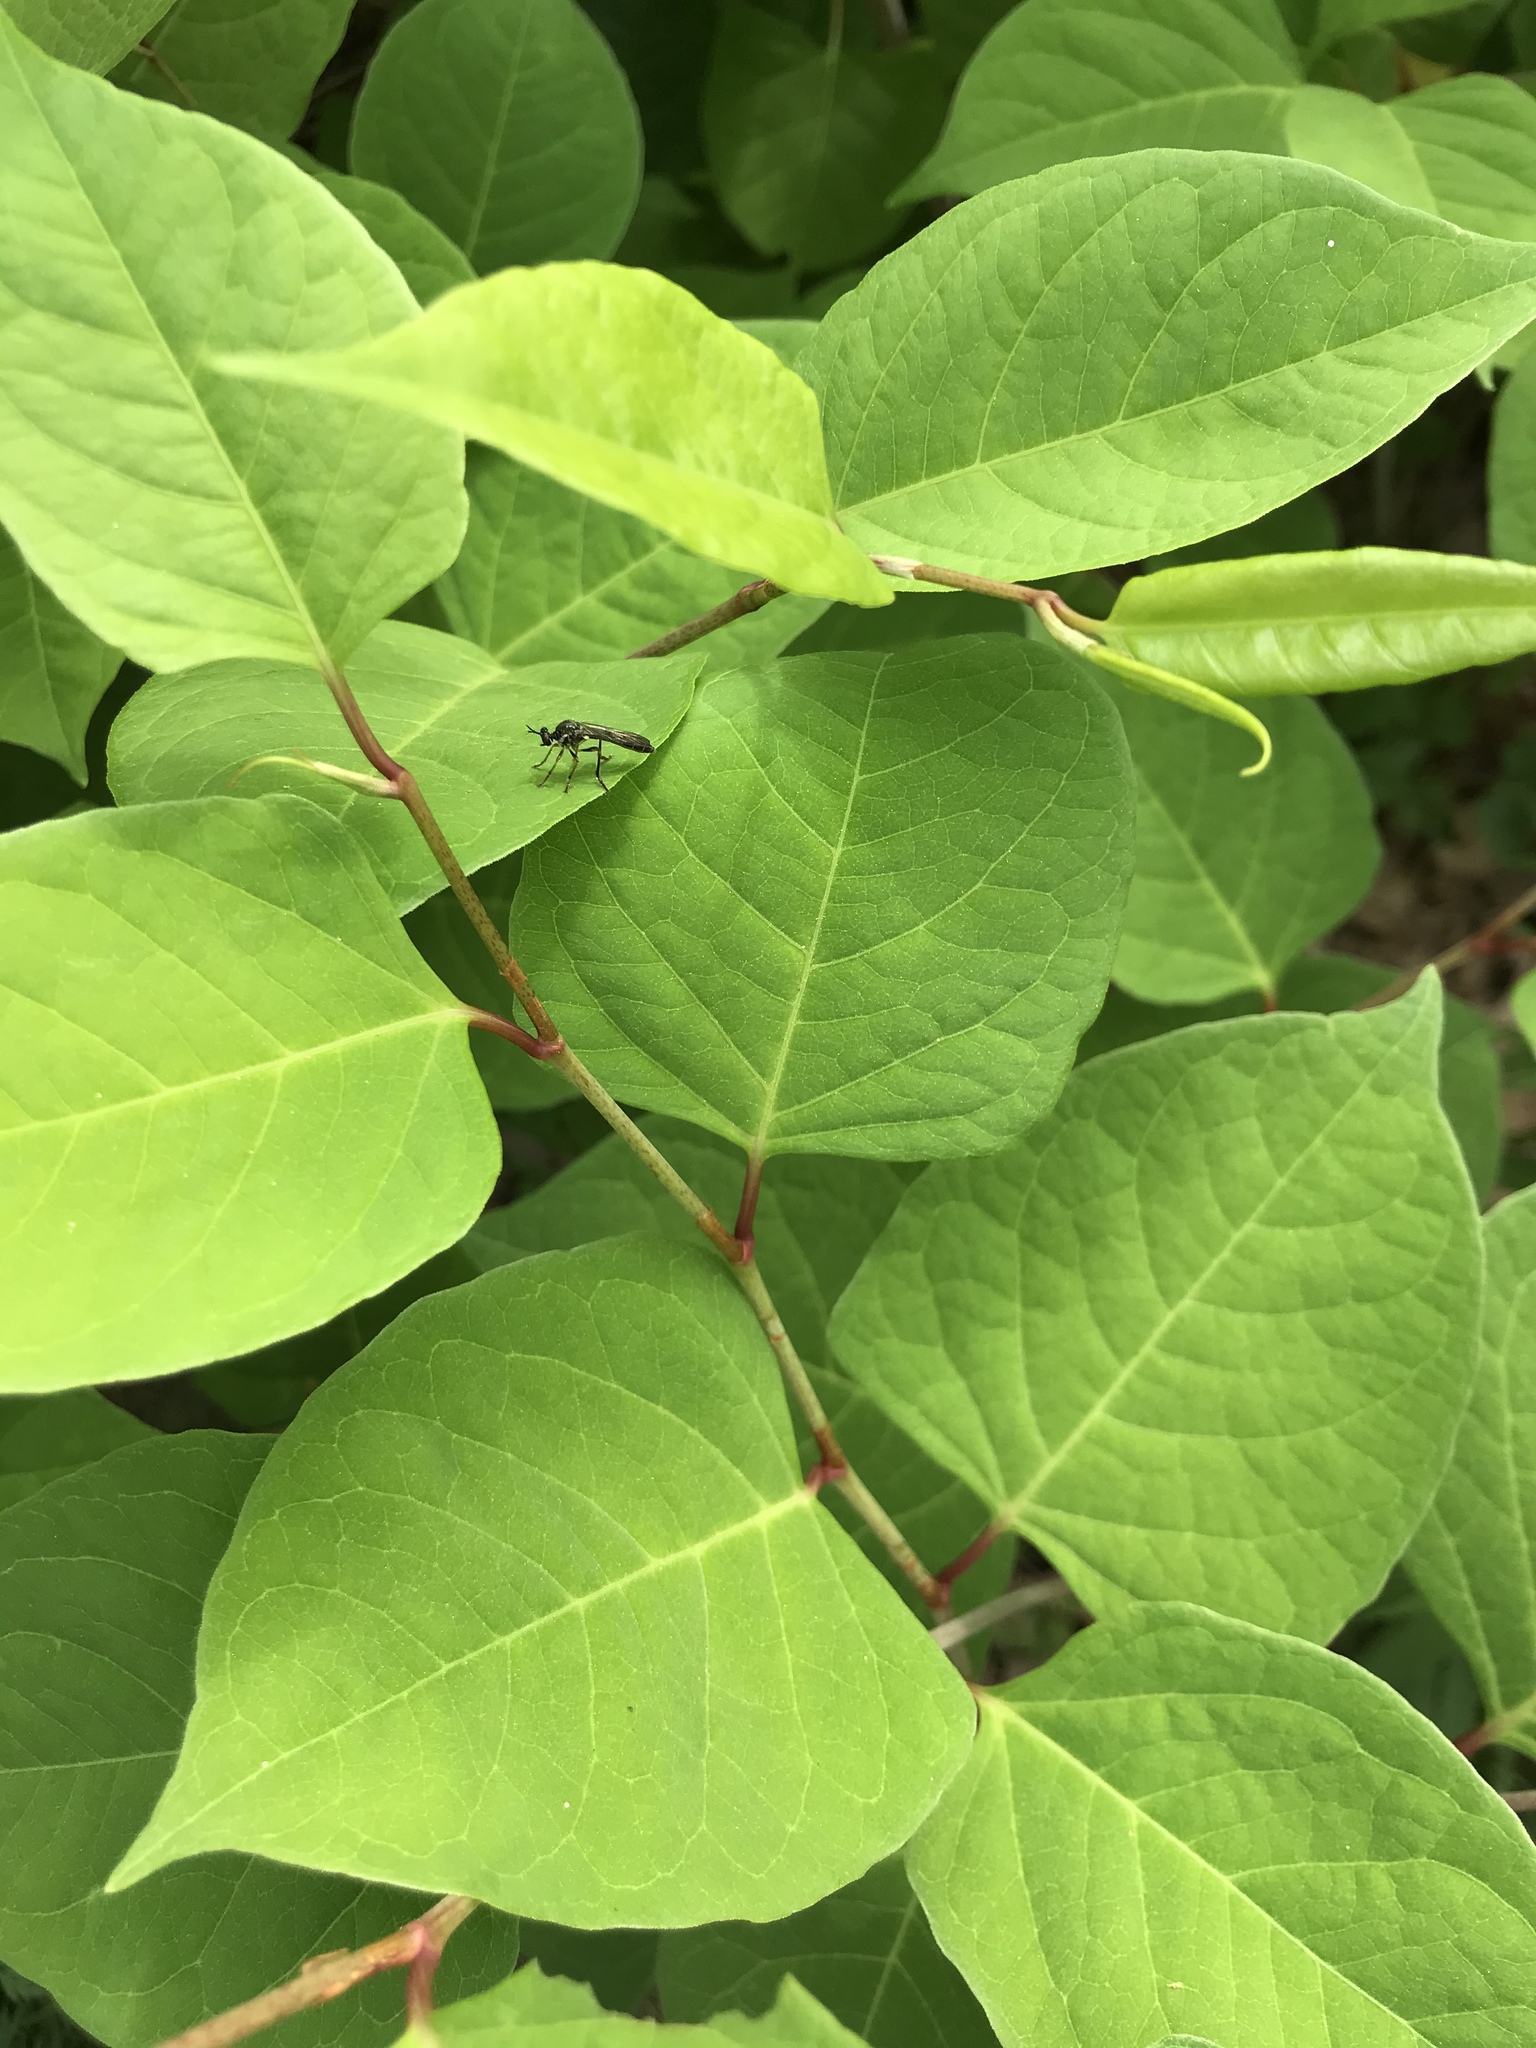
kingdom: Animalia
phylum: Arthropoda
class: Insecta
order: Diptera
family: Asilidae
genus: Dioctria
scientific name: Dioctria hyalipennis
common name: Stripe-legged robberfly
